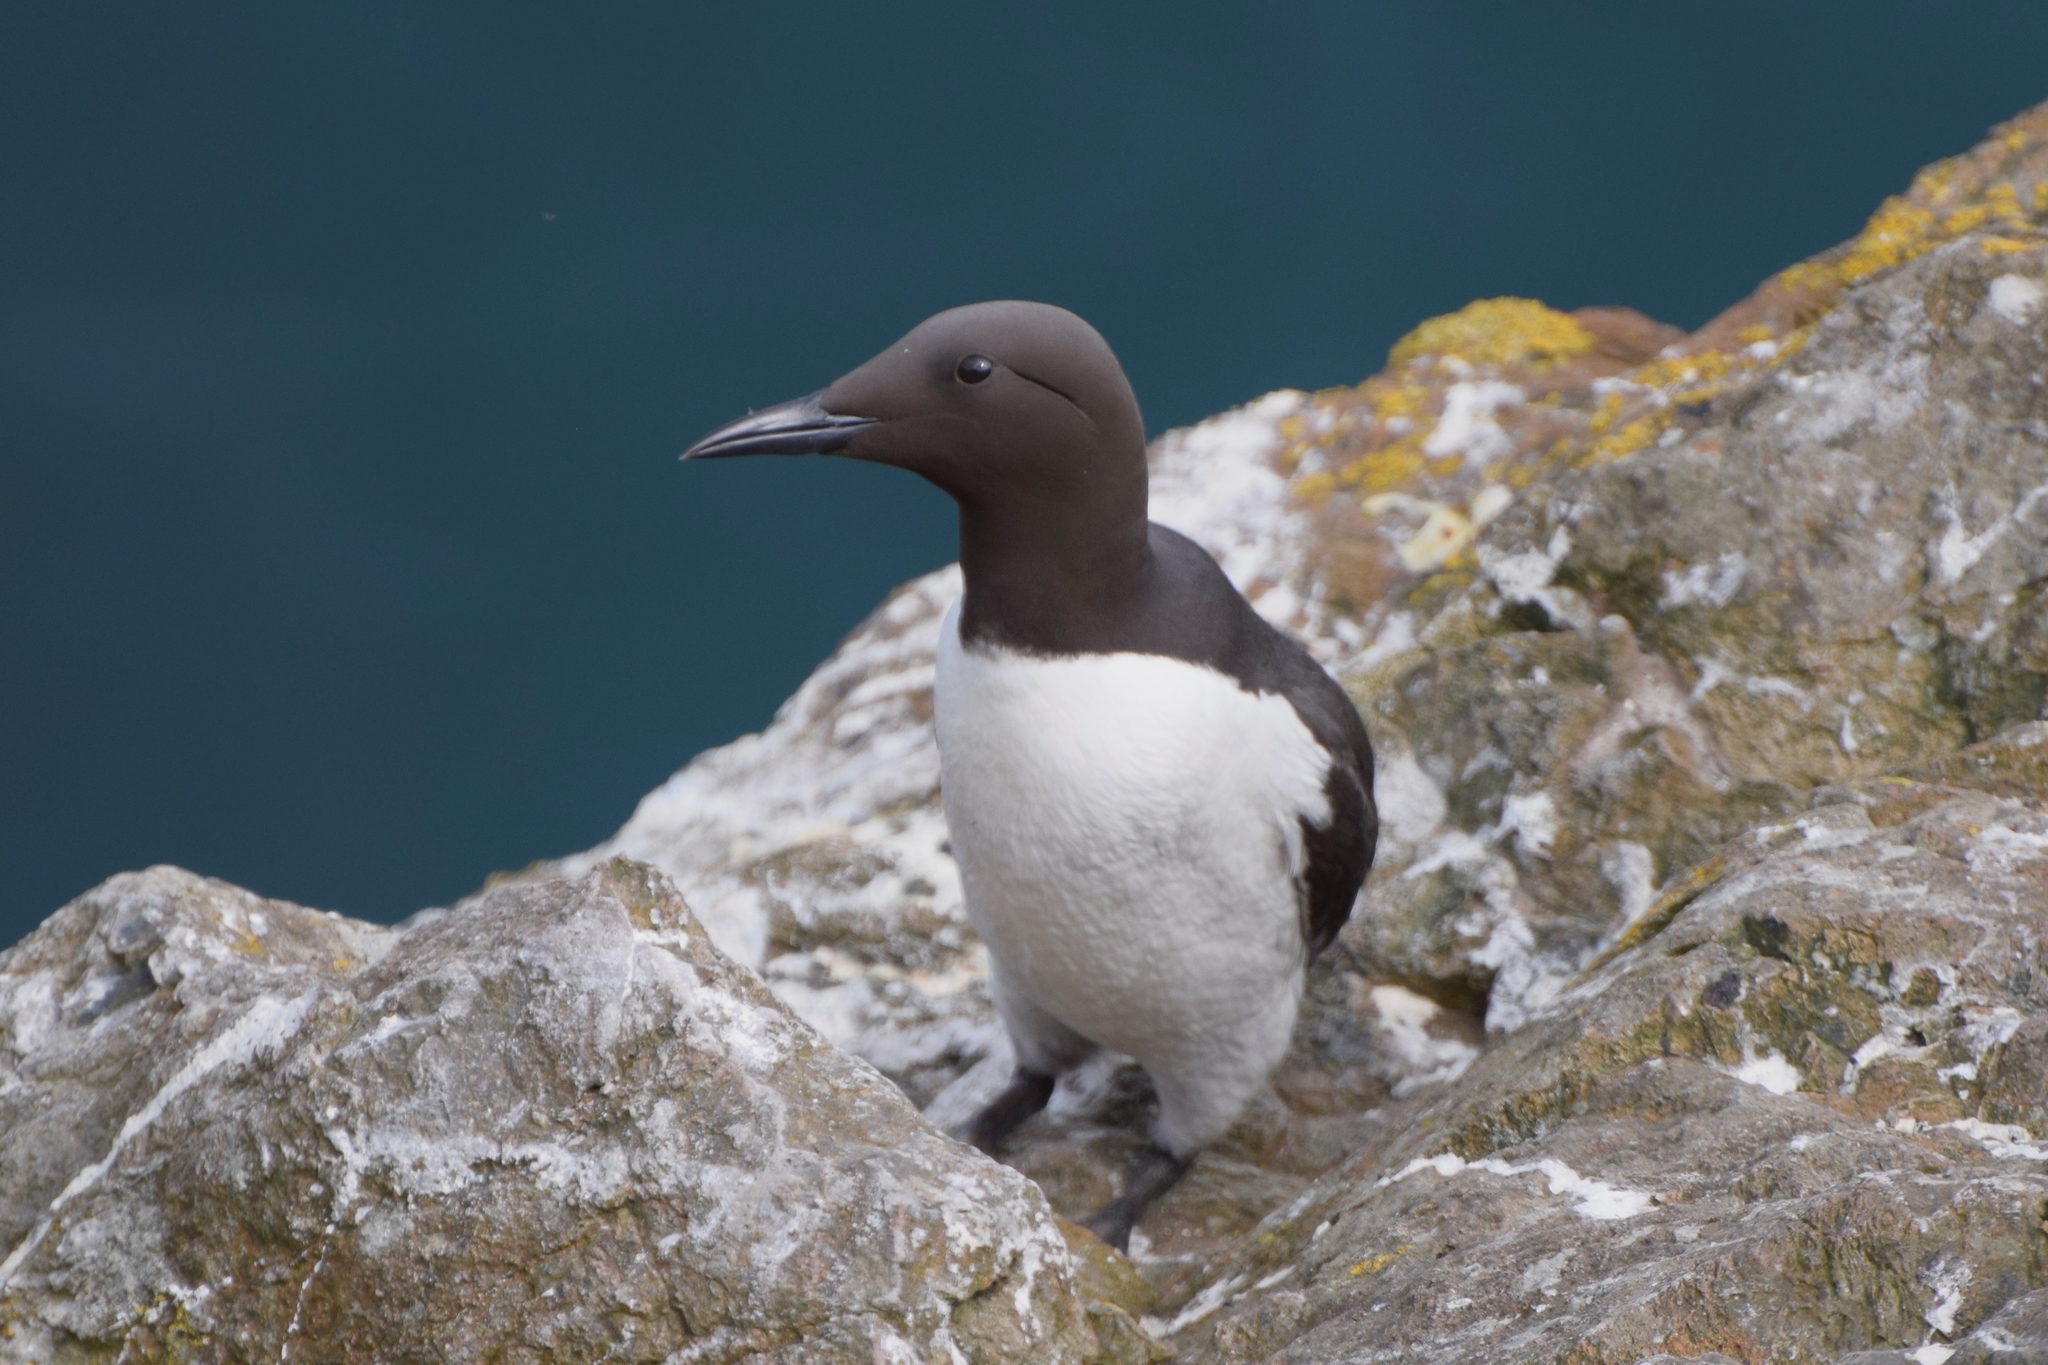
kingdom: Animalia
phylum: Chordata
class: Aves
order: Charadriiformes
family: Alcidae
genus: Uria
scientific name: Uria aalge
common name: Common murre
